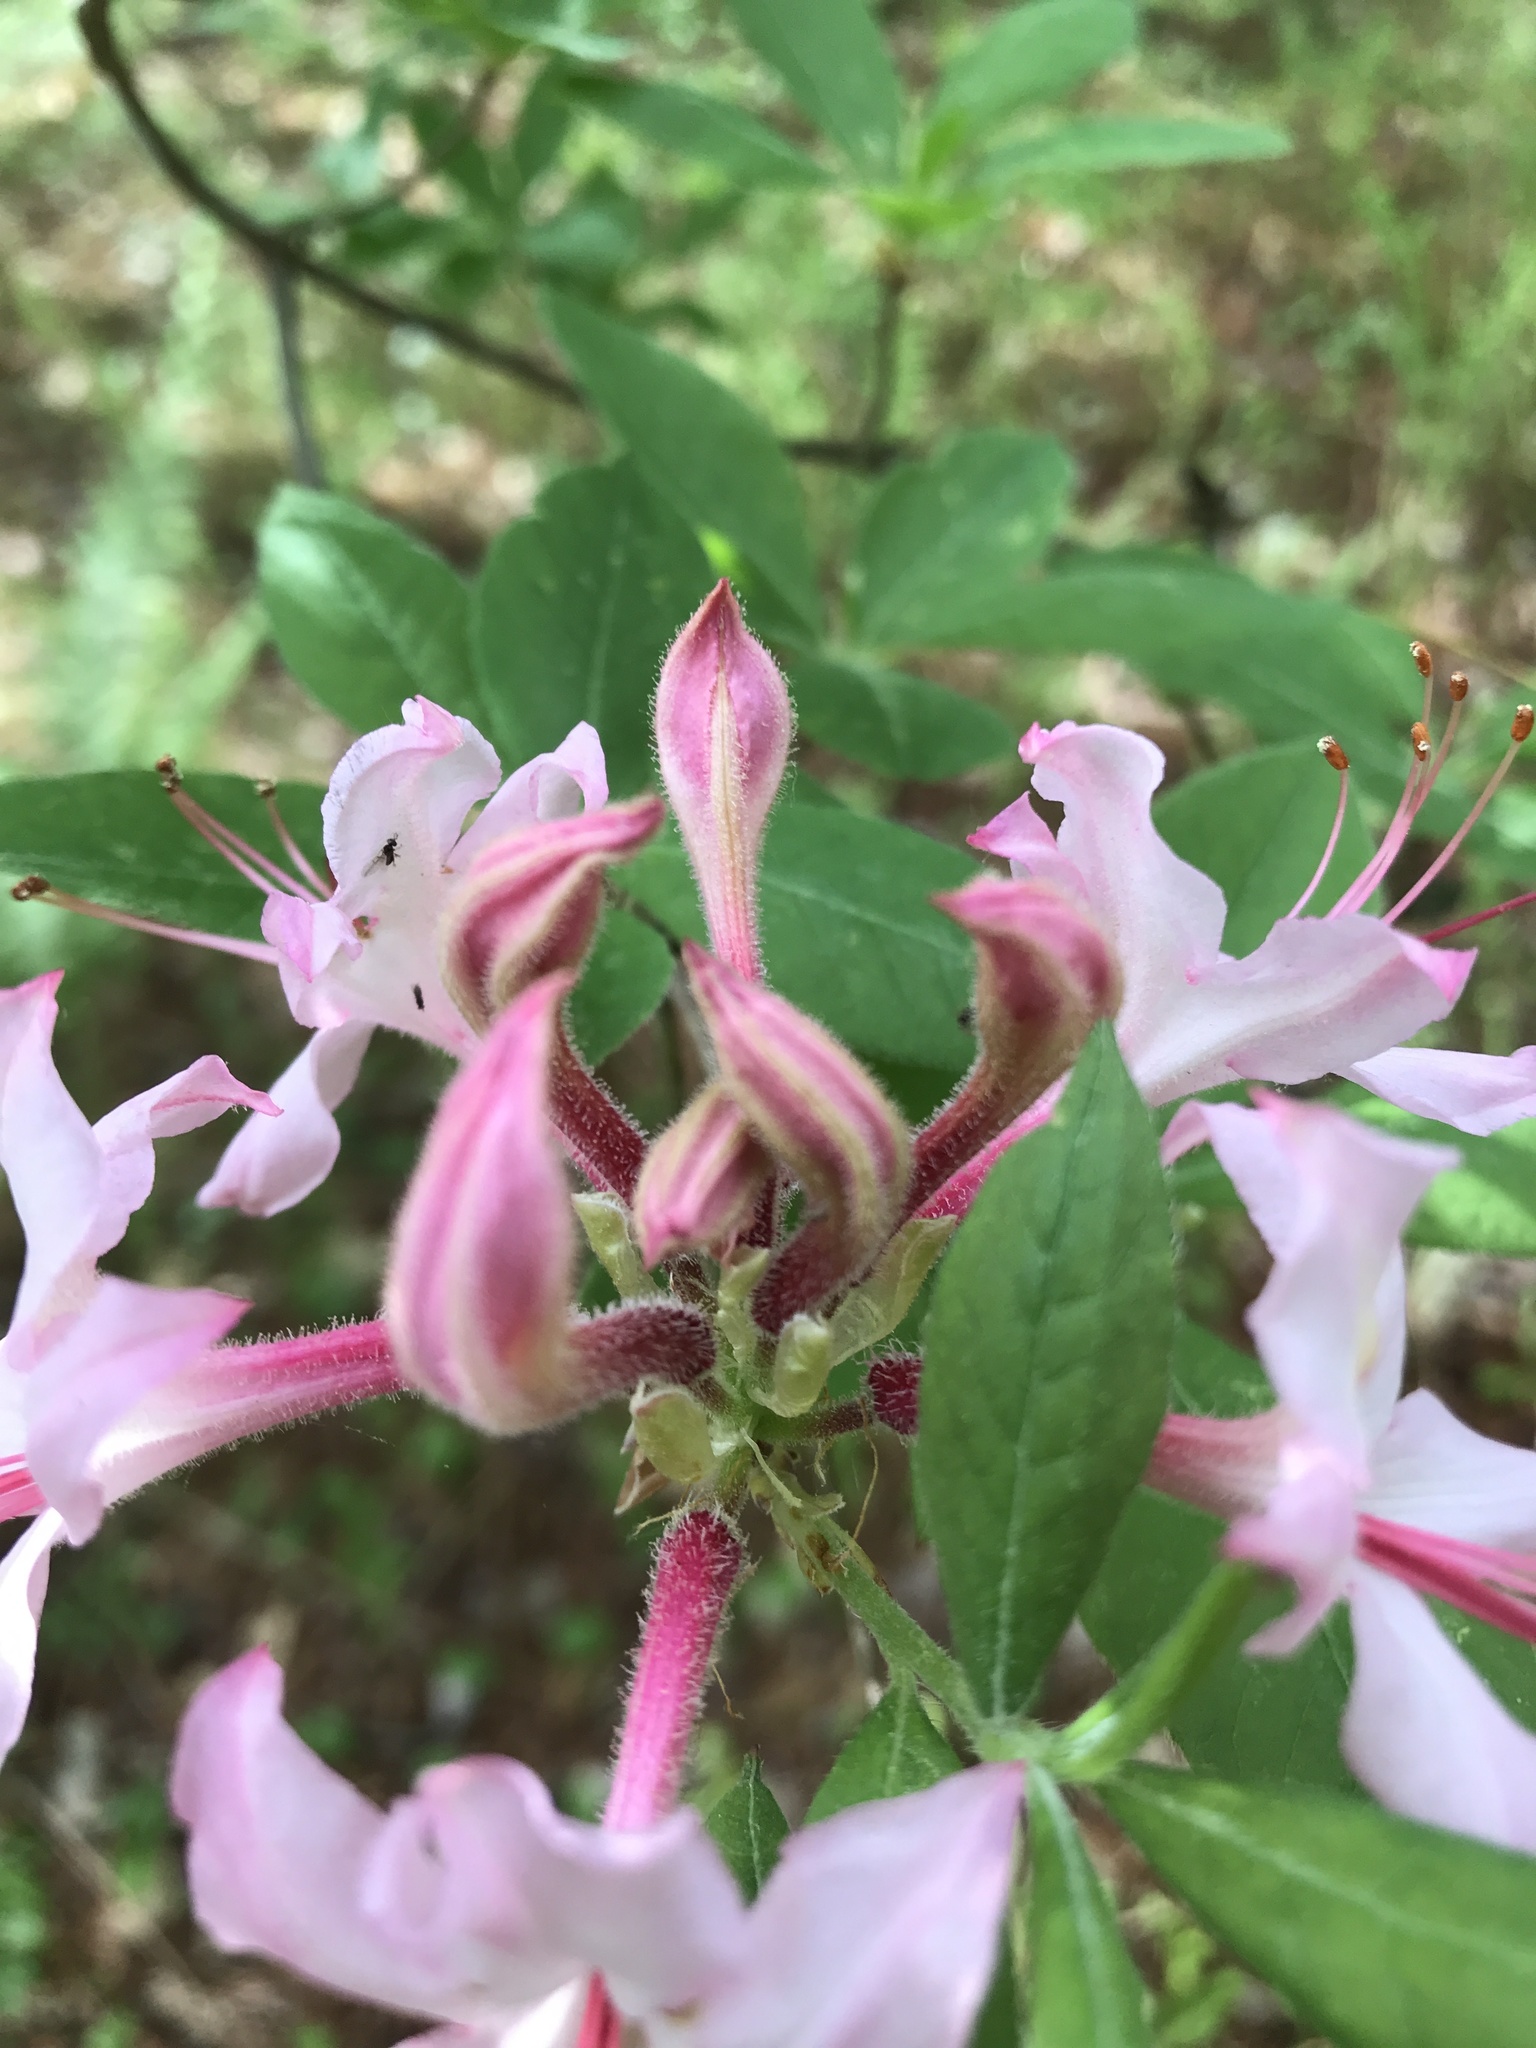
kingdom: Plantae
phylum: Tracheophyta
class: Magnoliopsida
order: Ericales
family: Ericaceae
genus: Rhododendron
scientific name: Rhododendron roseum
